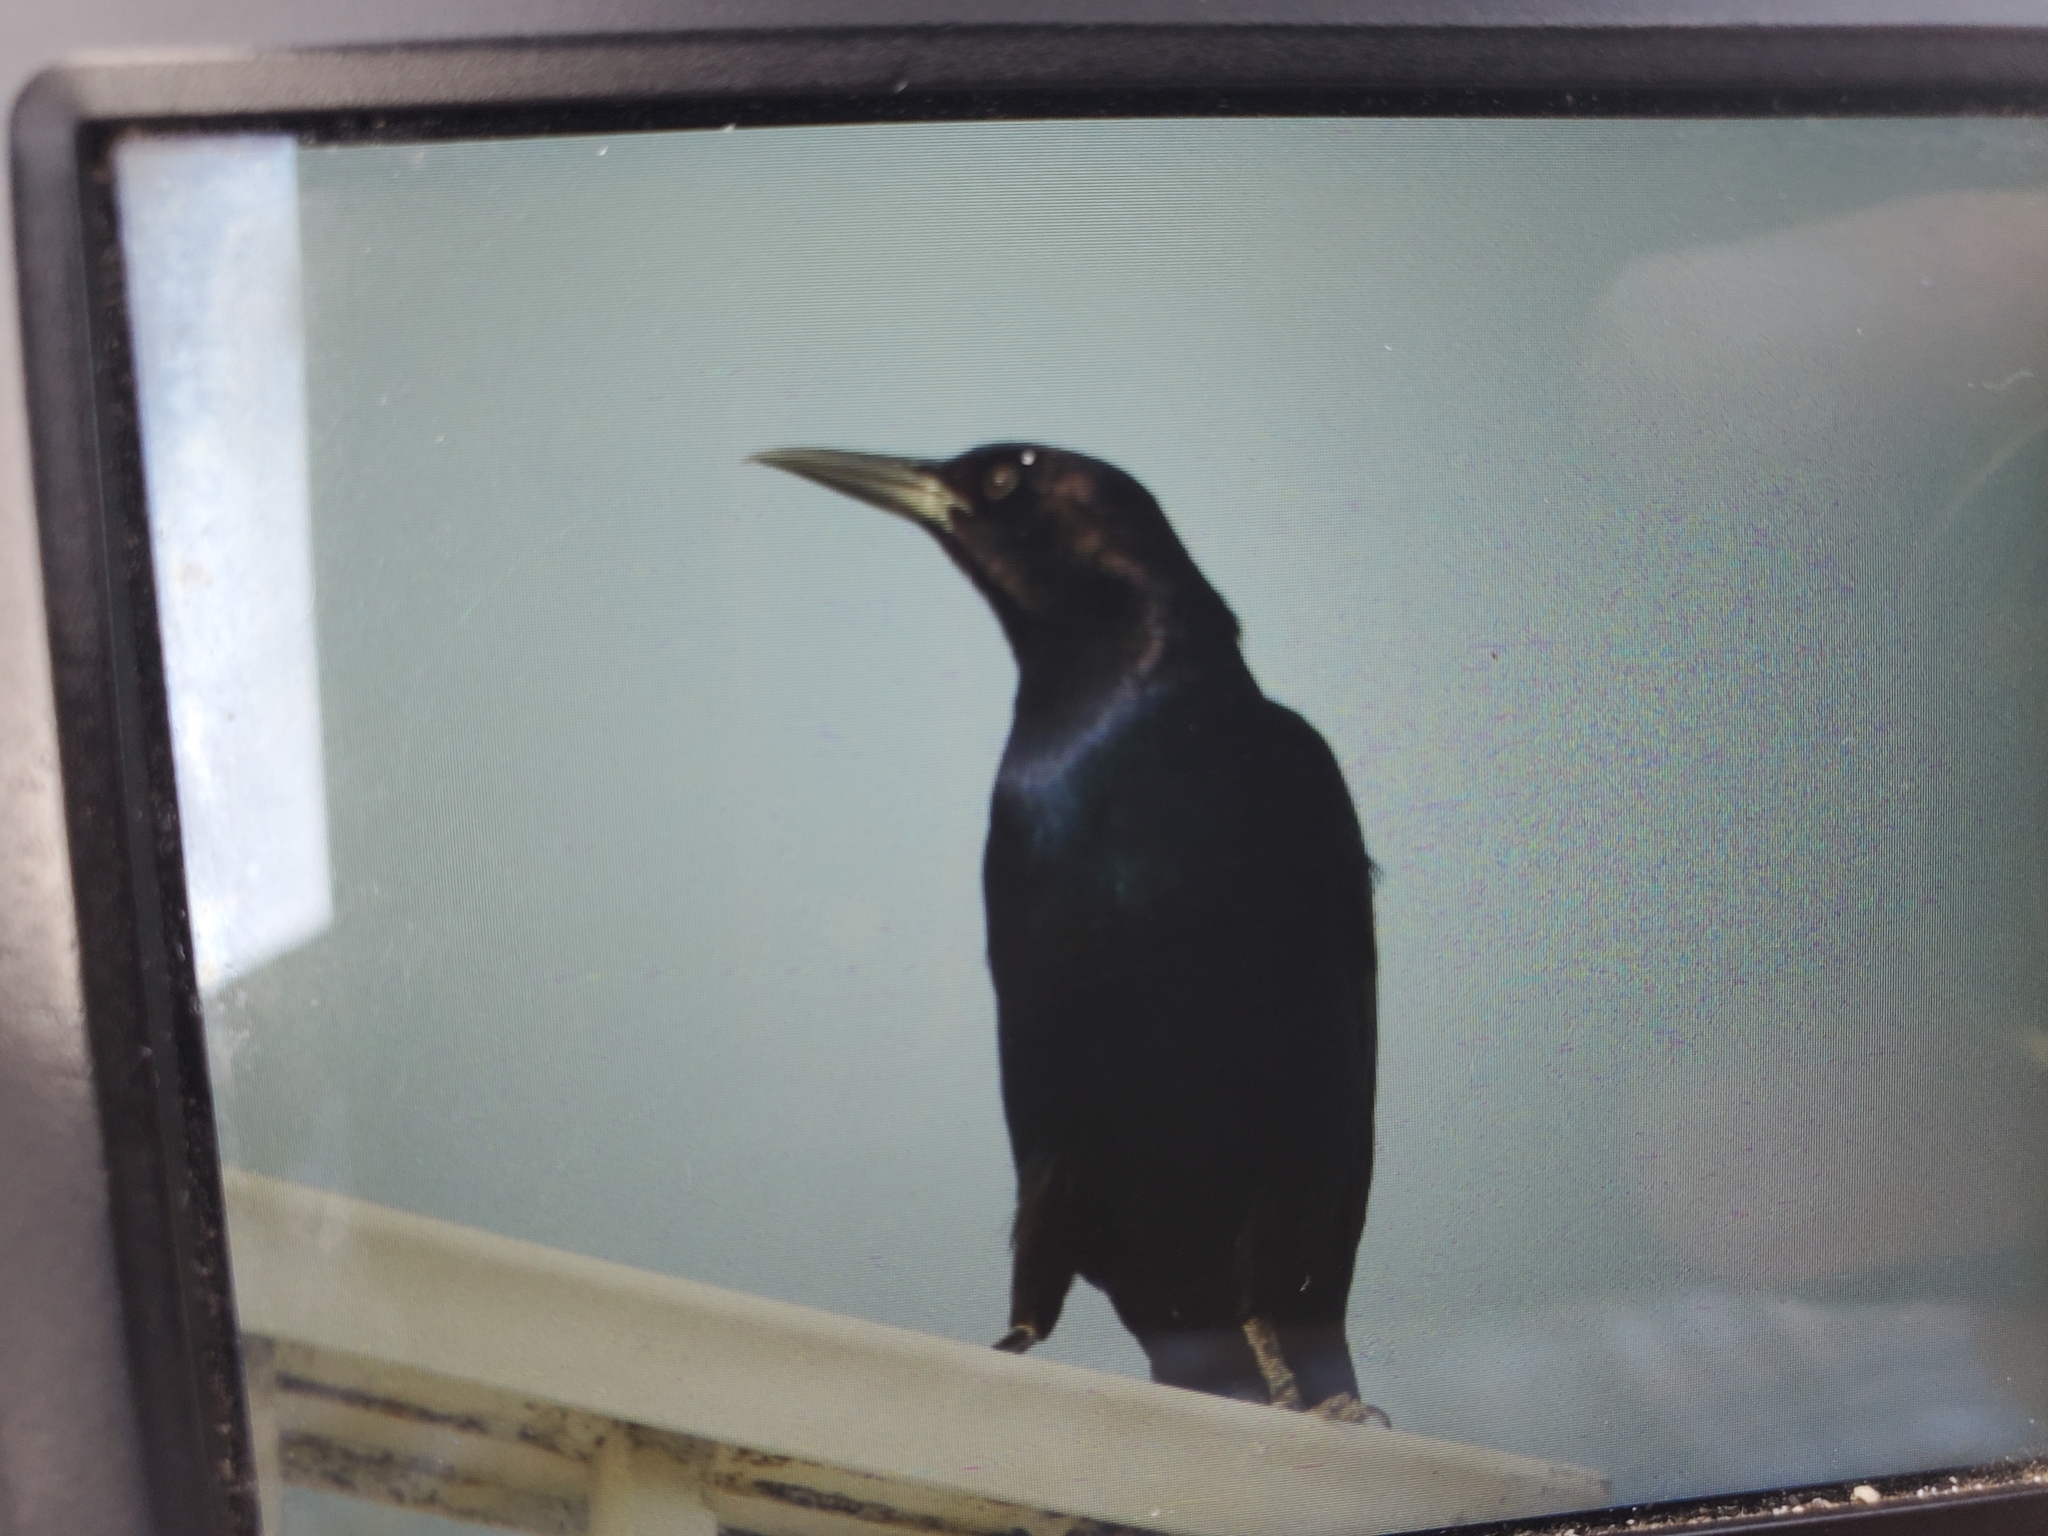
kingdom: Animalia
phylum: Chordata
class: Aves
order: Passeriformes
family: Icteridae
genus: Quiscalus
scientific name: Quiscalus major
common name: Boat-tailed grackle
